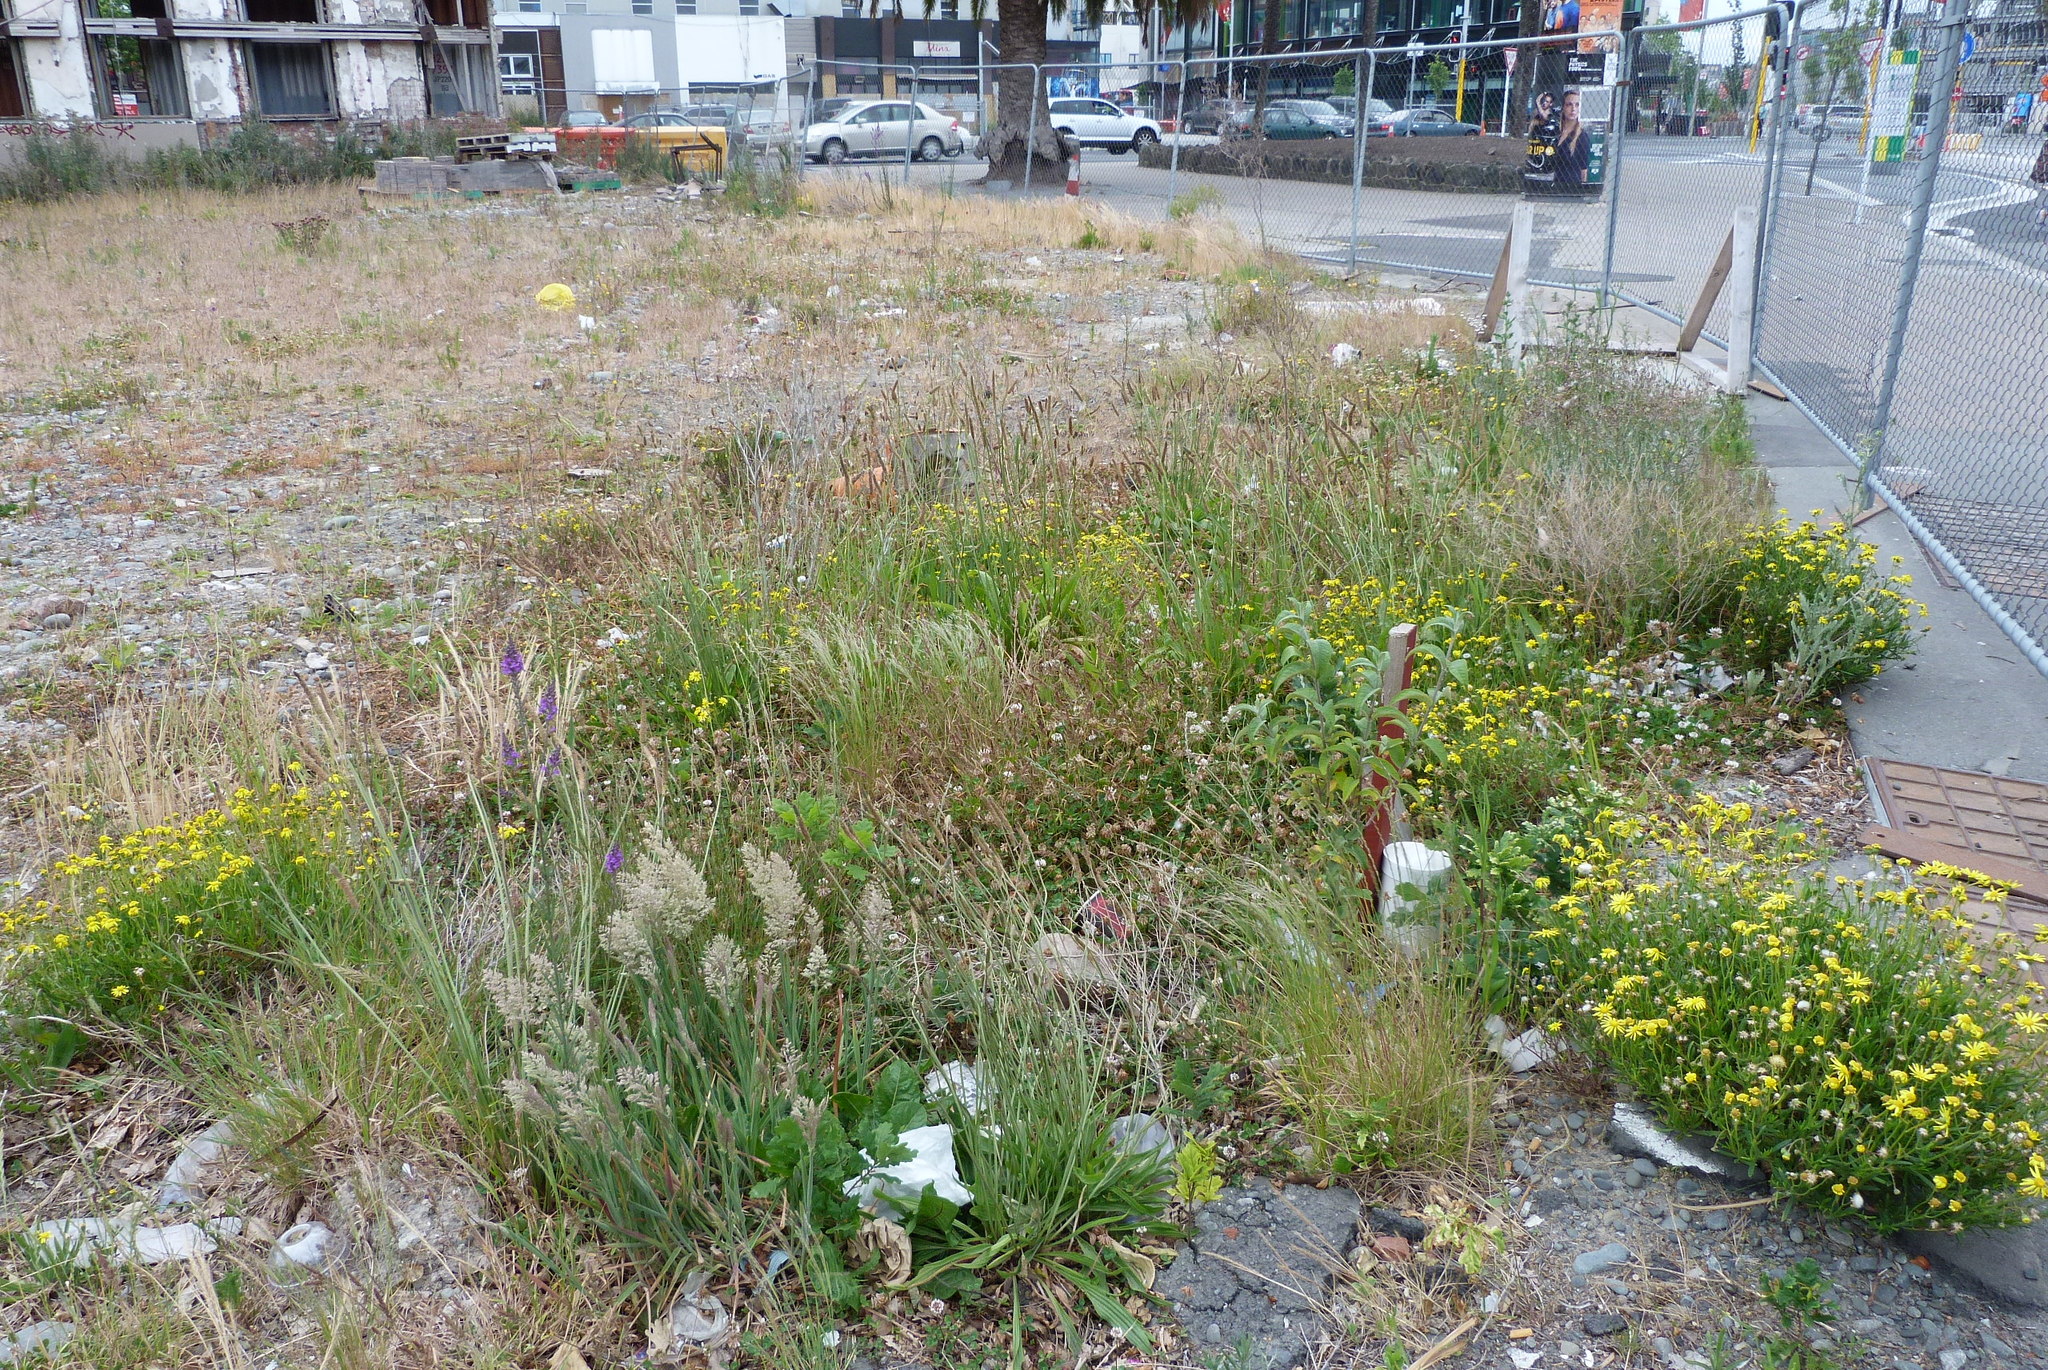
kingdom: Plantae
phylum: Tracheophyta
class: Liliopsida
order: Poales
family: Poaceae
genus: Lachnagrostis
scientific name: Lachnagrostis filiformis
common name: Bentgrass
